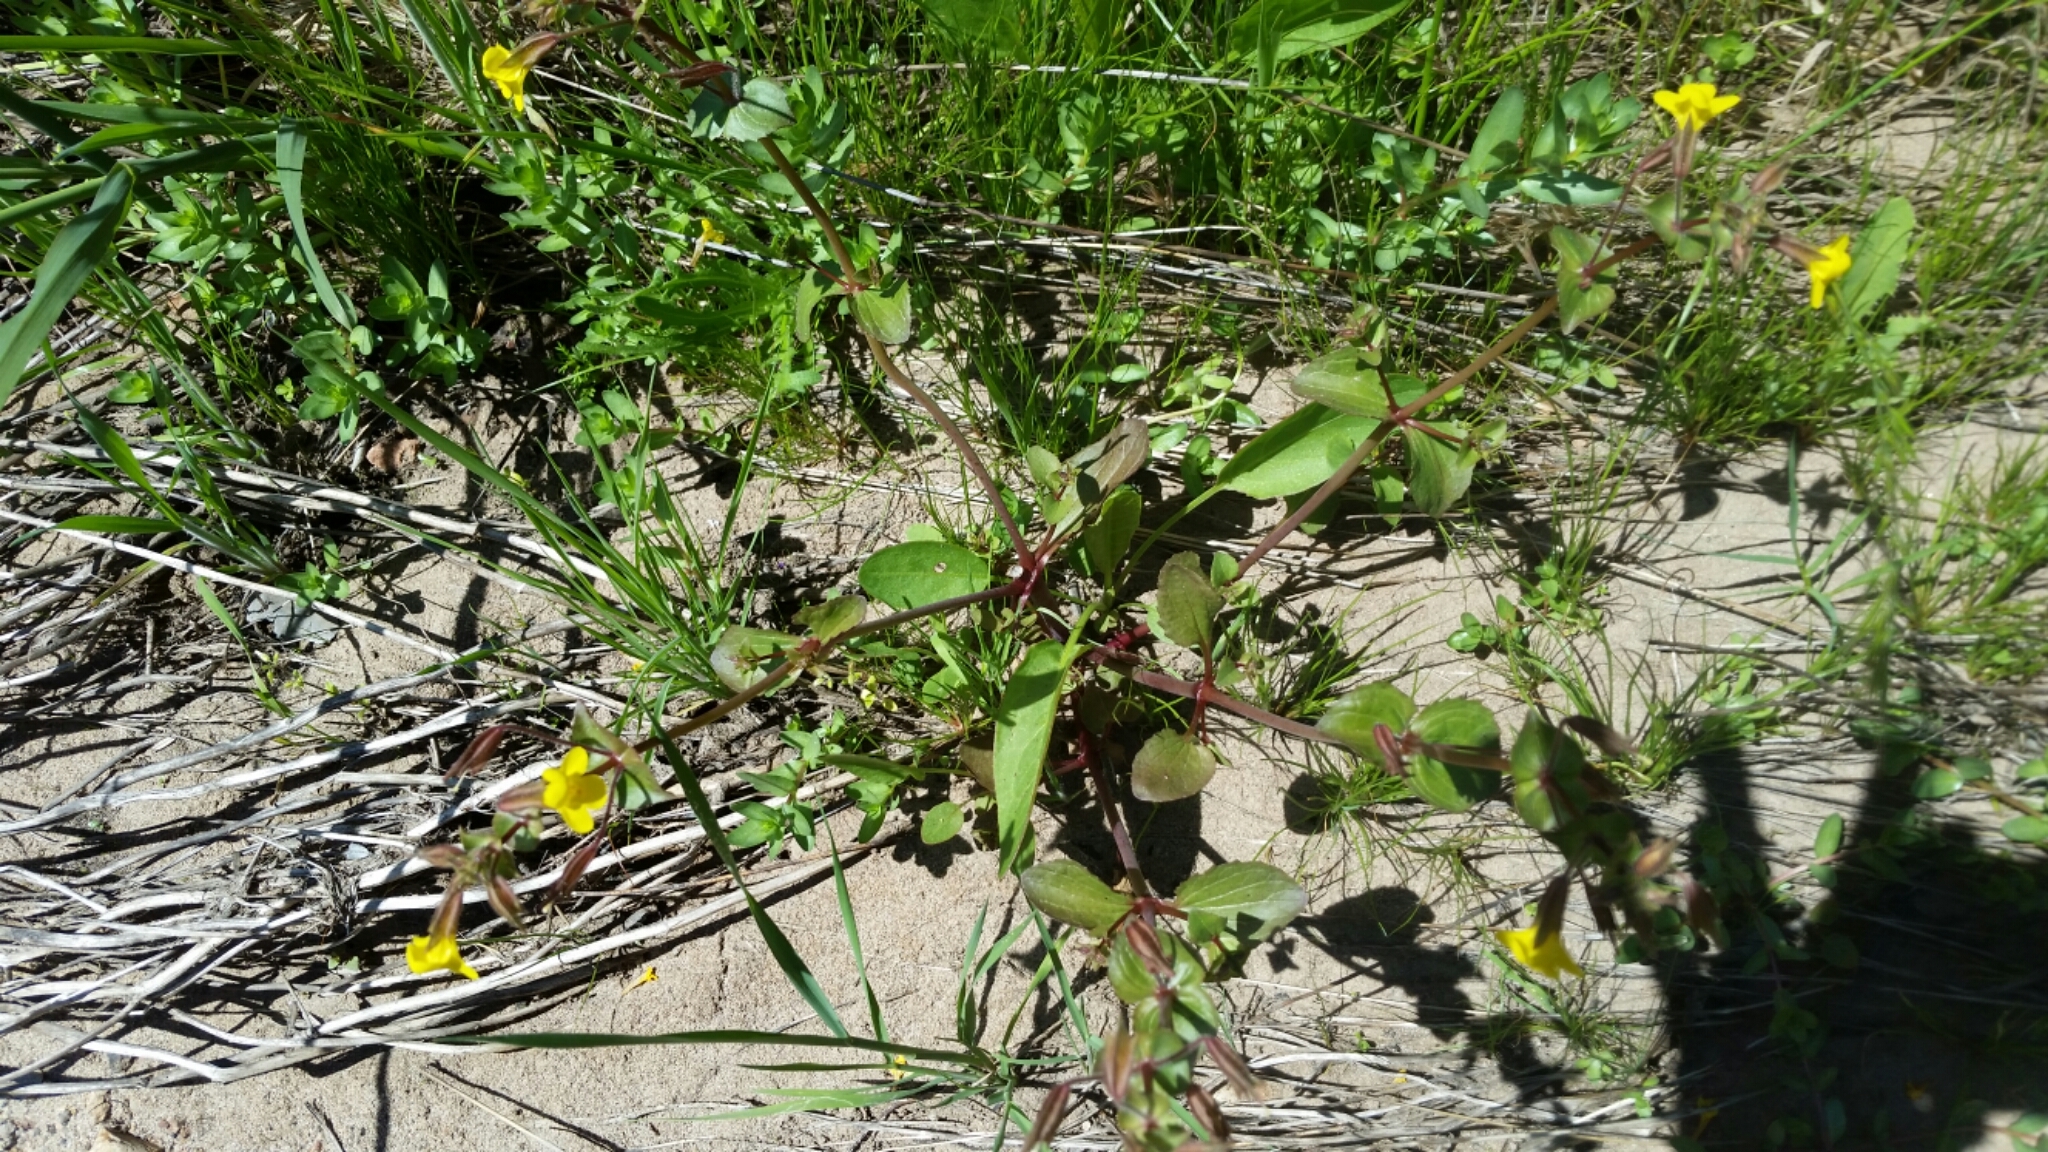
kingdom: Plantae
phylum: Tracheophyta
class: Magnoliopsida
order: Lamiales
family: Phrymaceae
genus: Erythranthe
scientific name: Erythranthe guttata
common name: Monkeyflower
